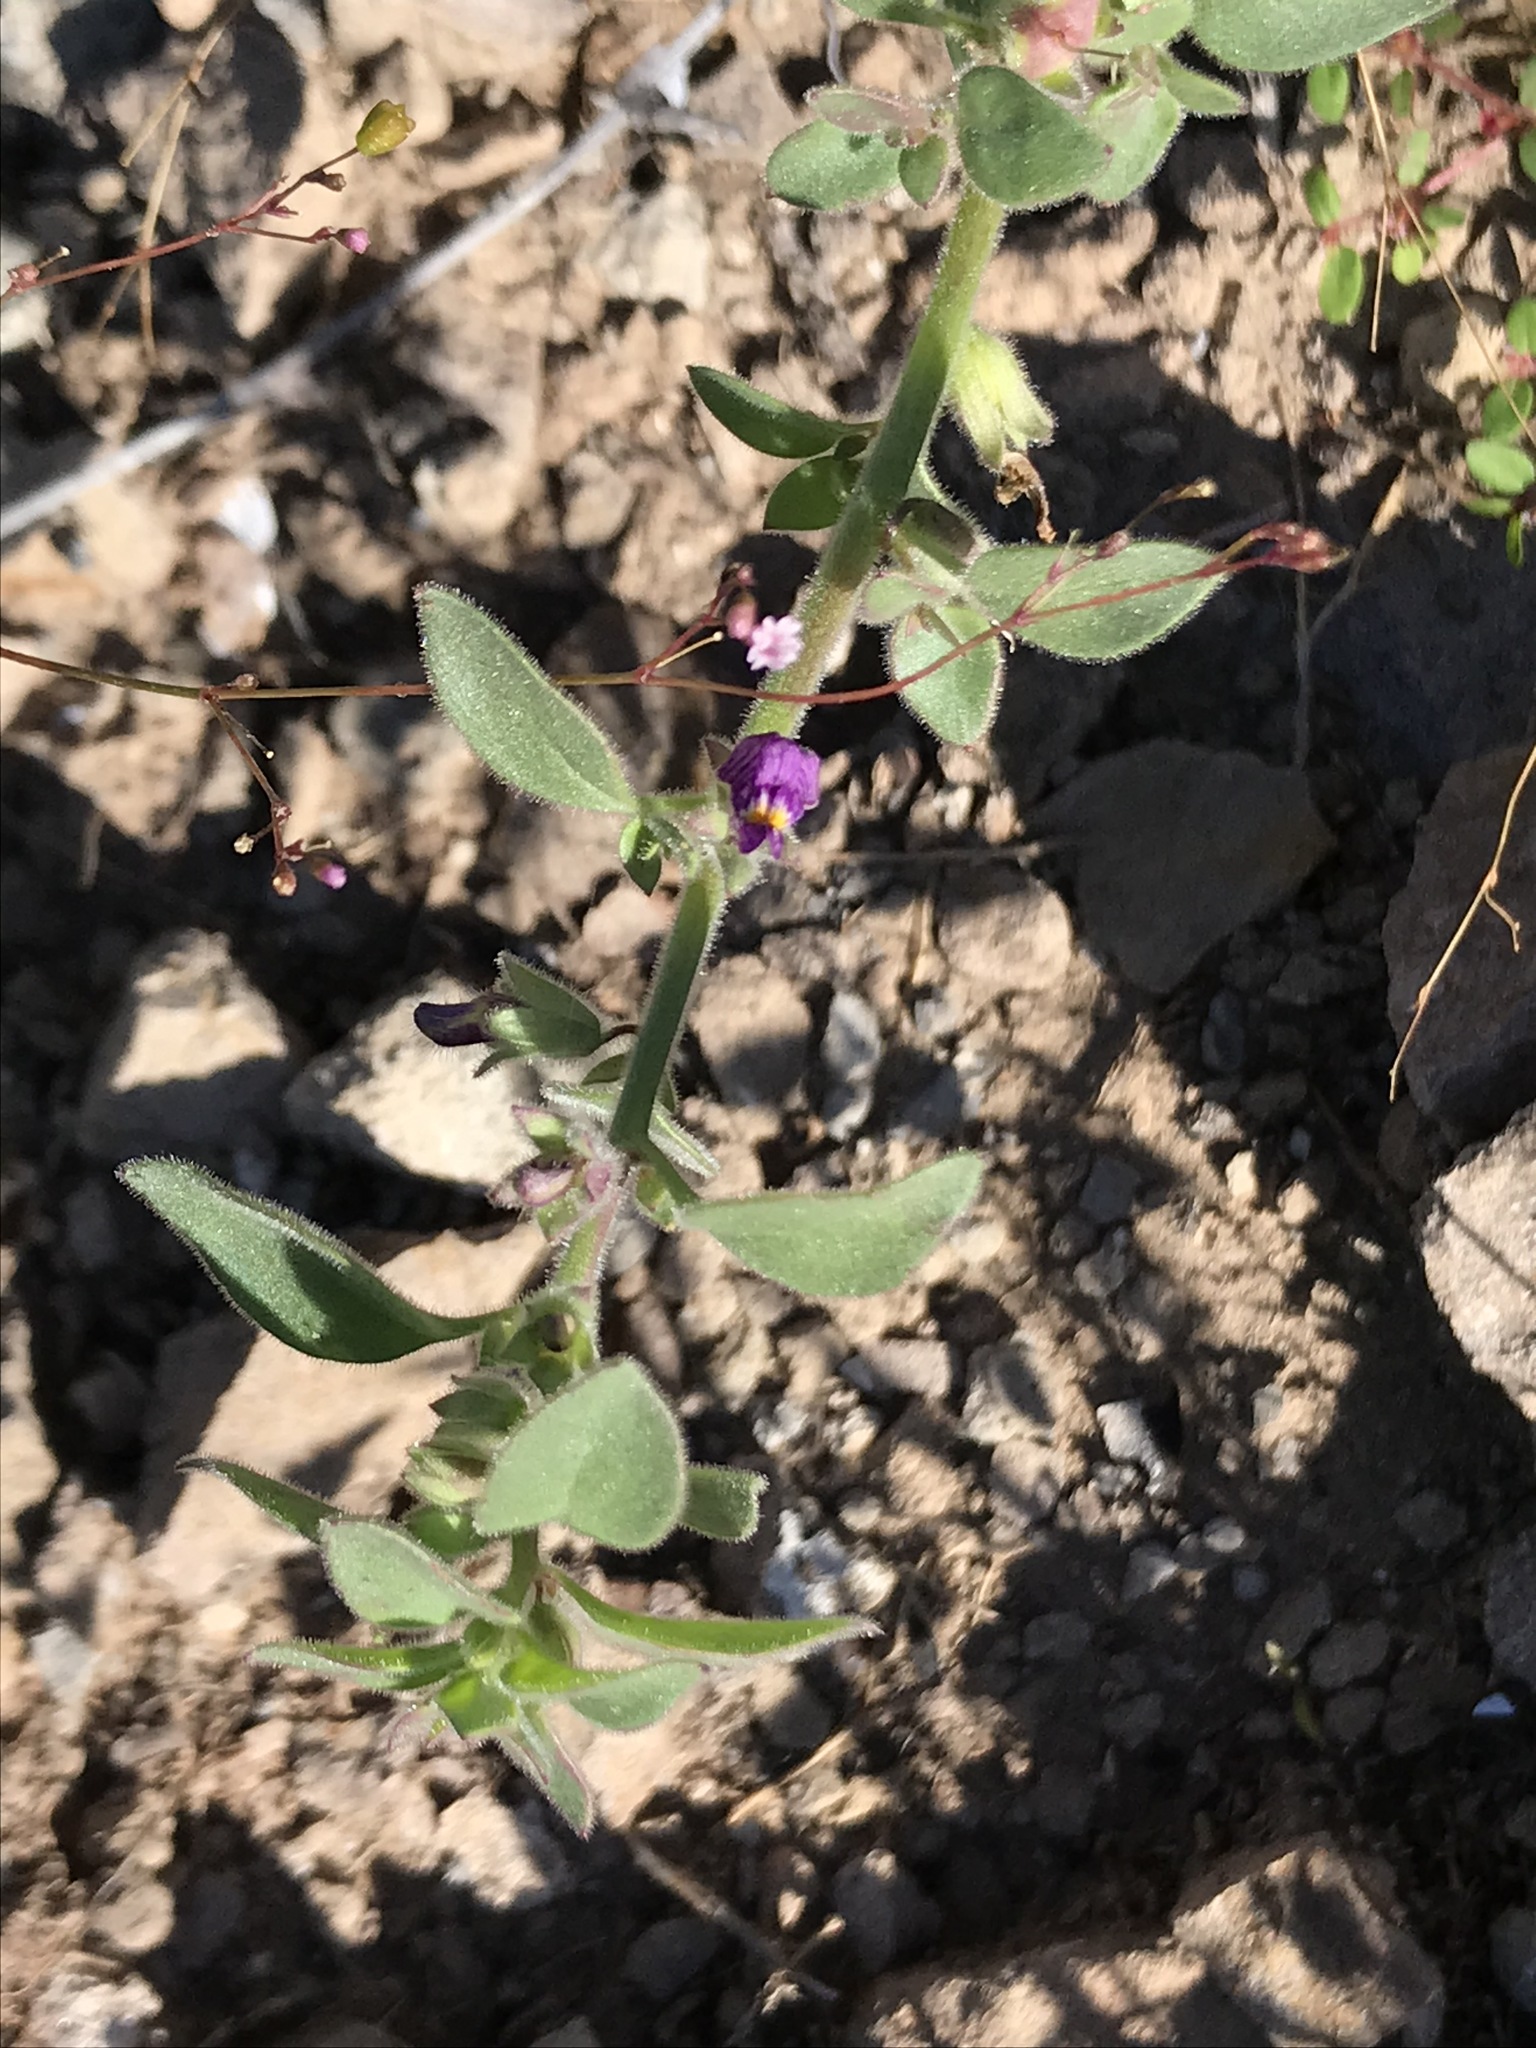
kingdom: Plantae
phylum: Tracheophyta
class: Magnoliopsida
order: Lamiales
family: Plantaginaceae
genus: Pseudorontium
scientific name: Pseudorontium cyathiferum
